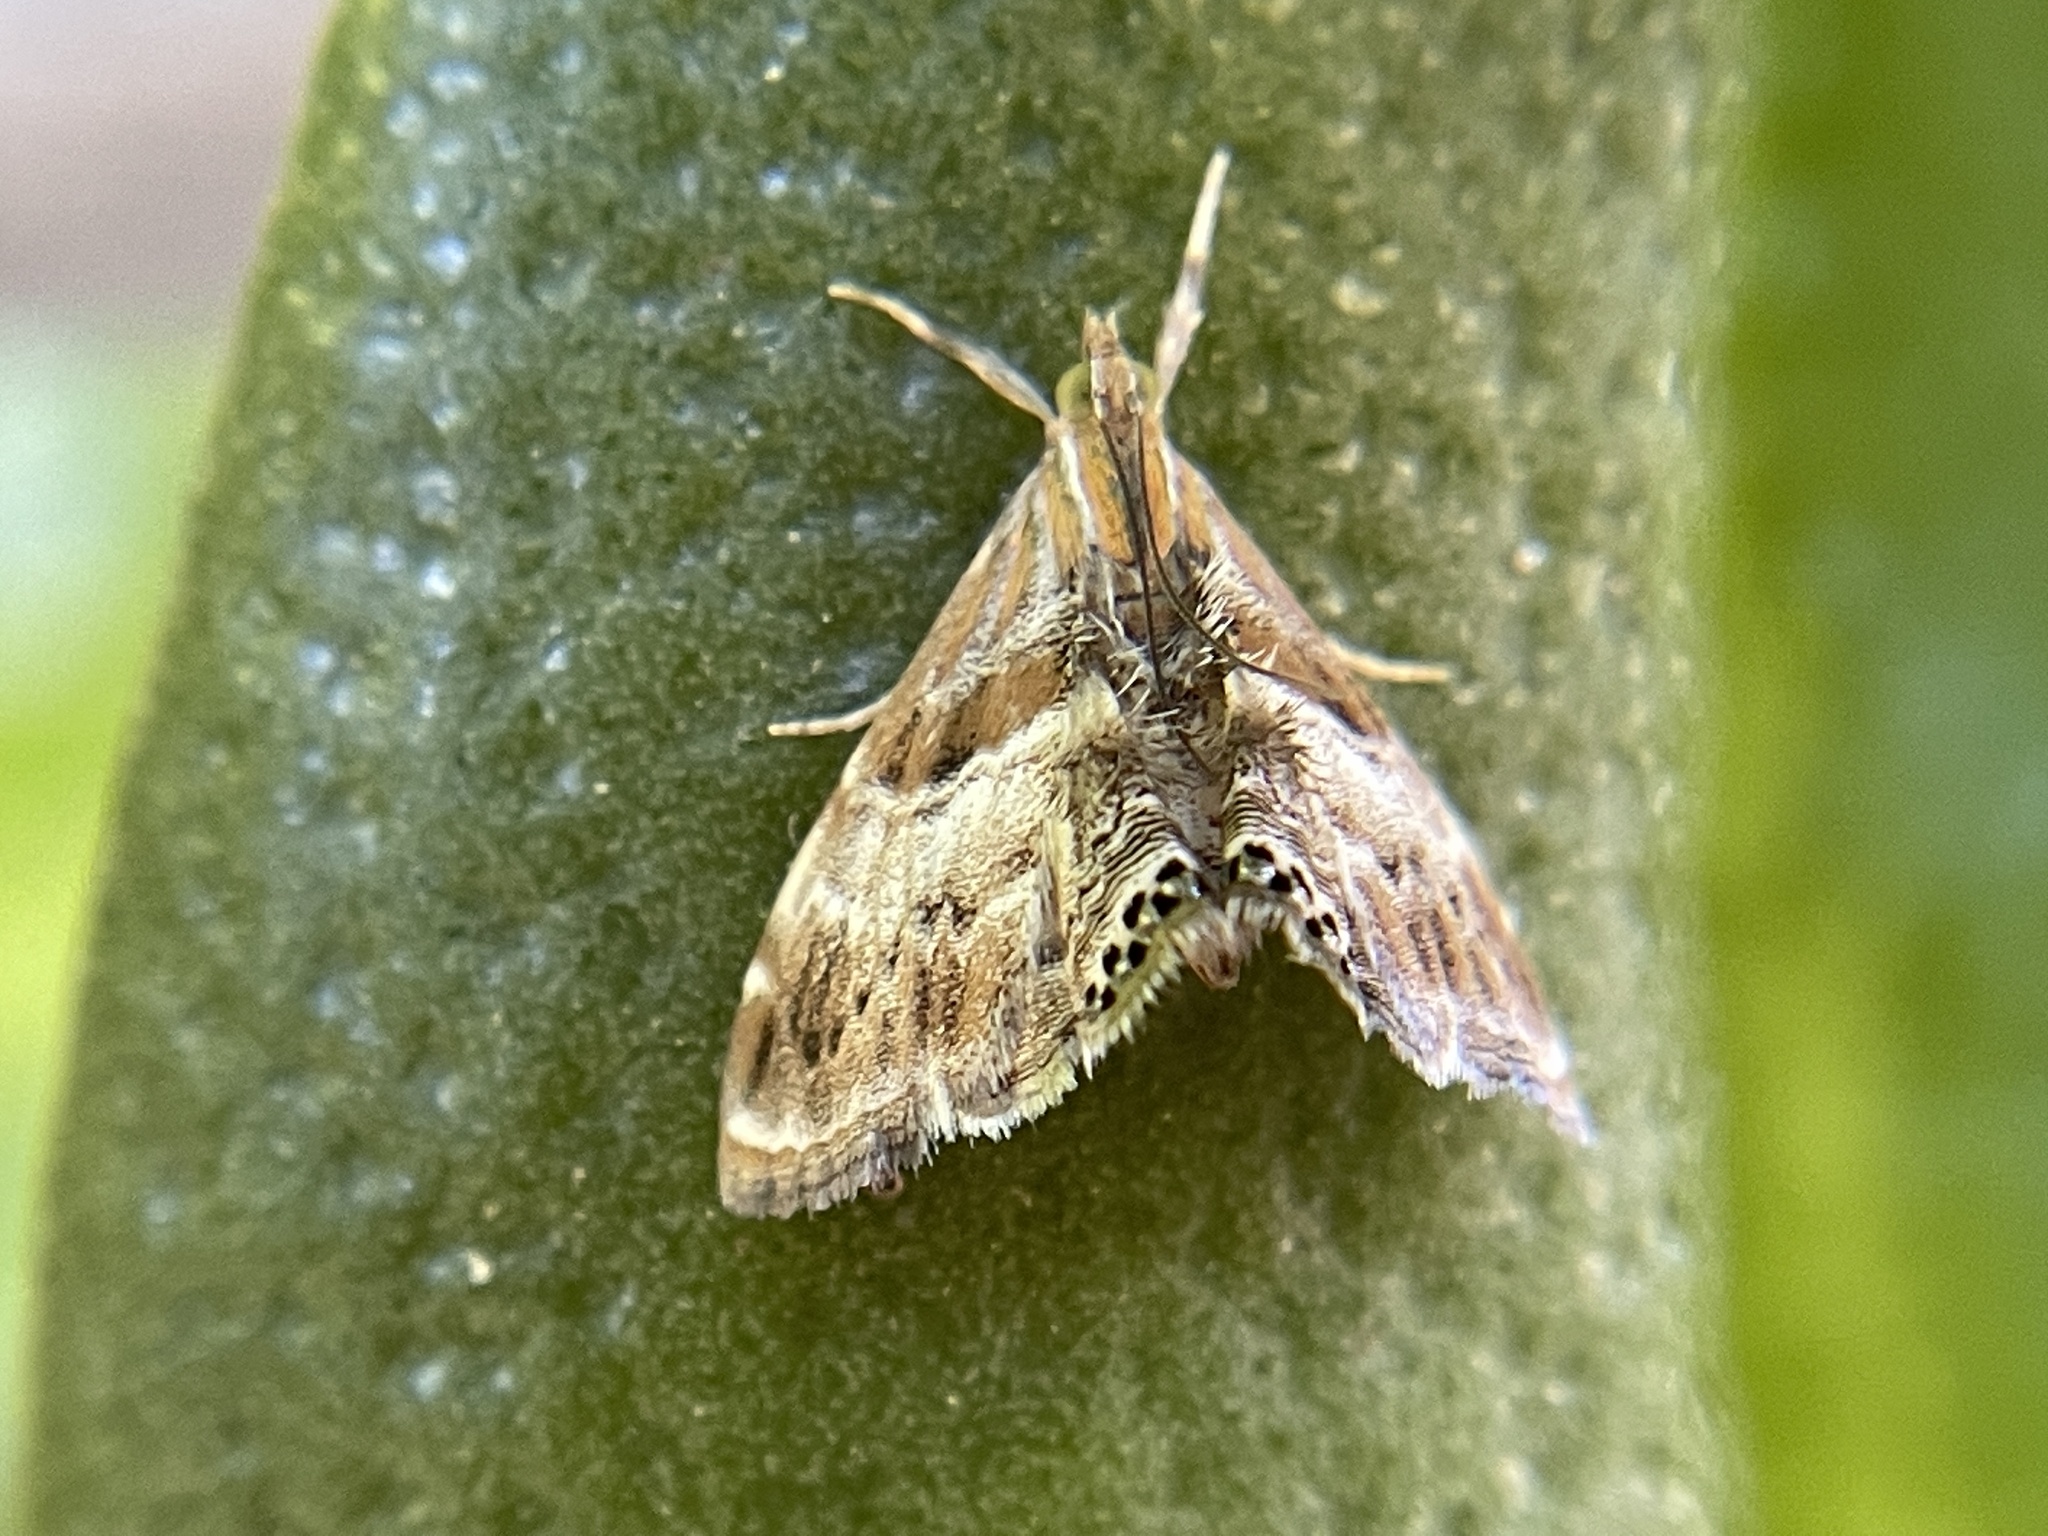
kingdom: Animalia
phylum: Arthropoda
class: Insecta
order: Lepidoptera
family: Crambidae
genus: Dicymolomia
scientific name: Dicymolomia metalliferalis
